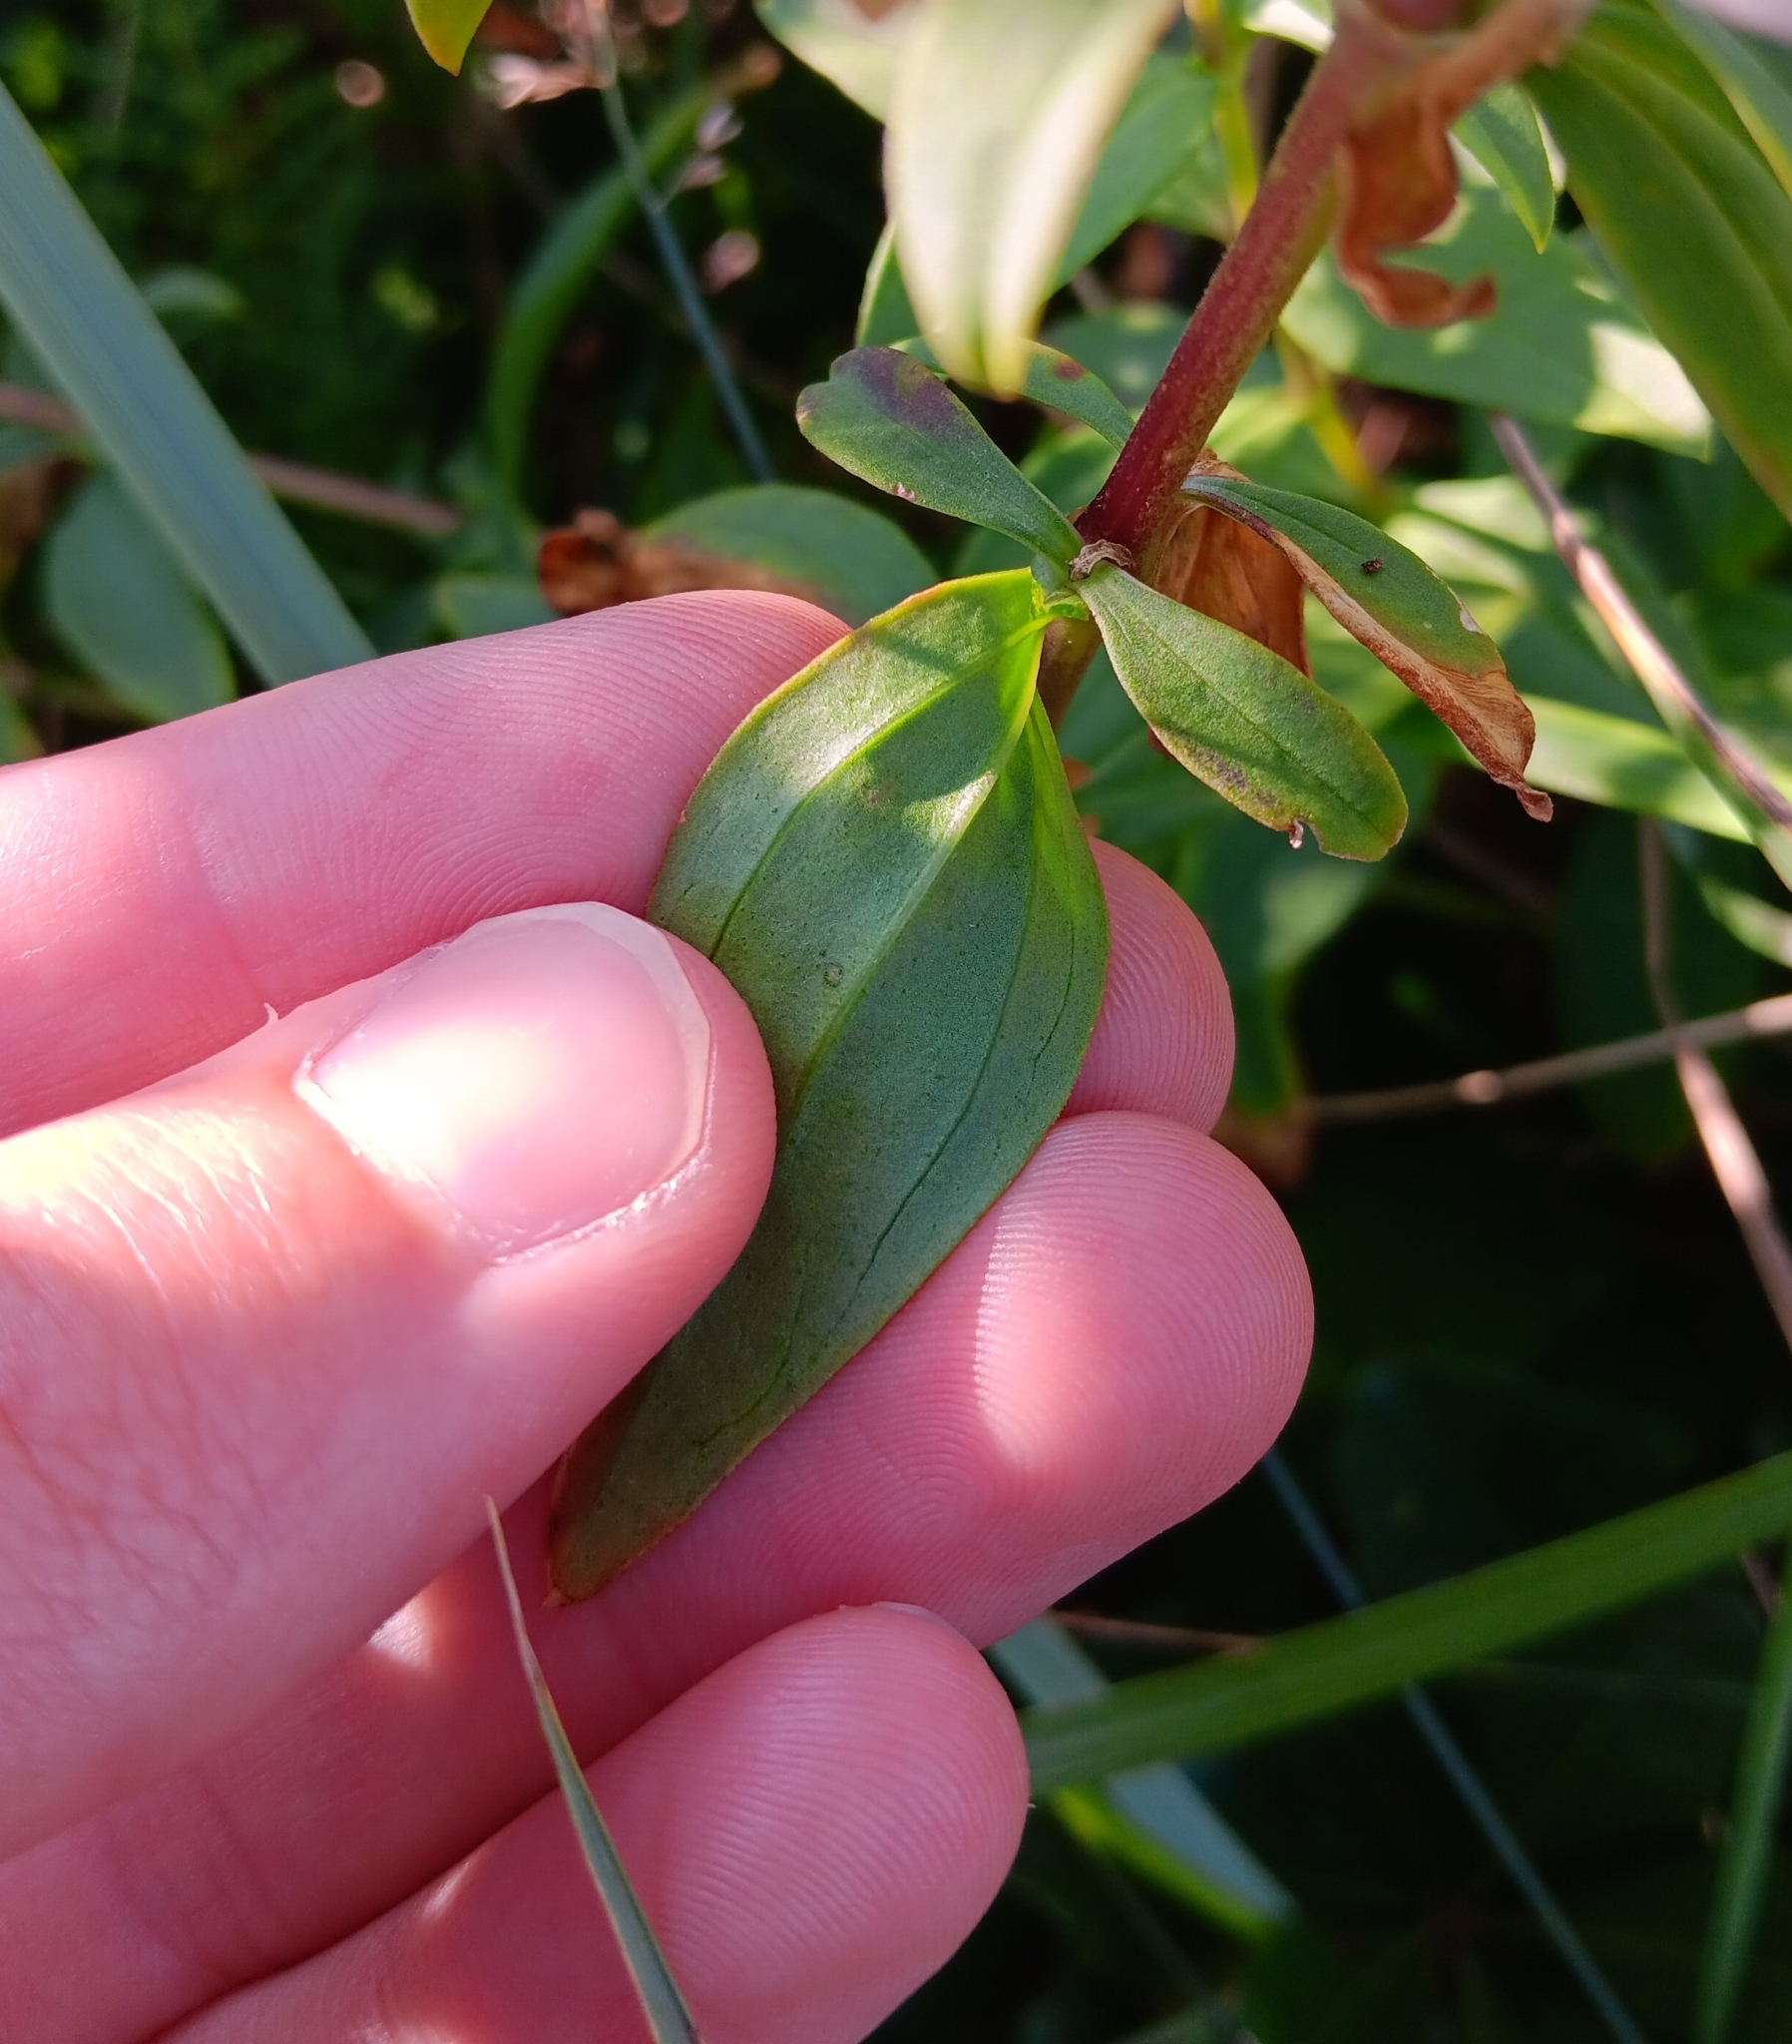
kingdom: Plantae
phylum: Tracheophyta
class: Magnoliopsida
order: Caryophyllales
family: Caryophyllaceae
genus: Saponaria
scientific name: Saponaria officinalis
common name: Soapwort
